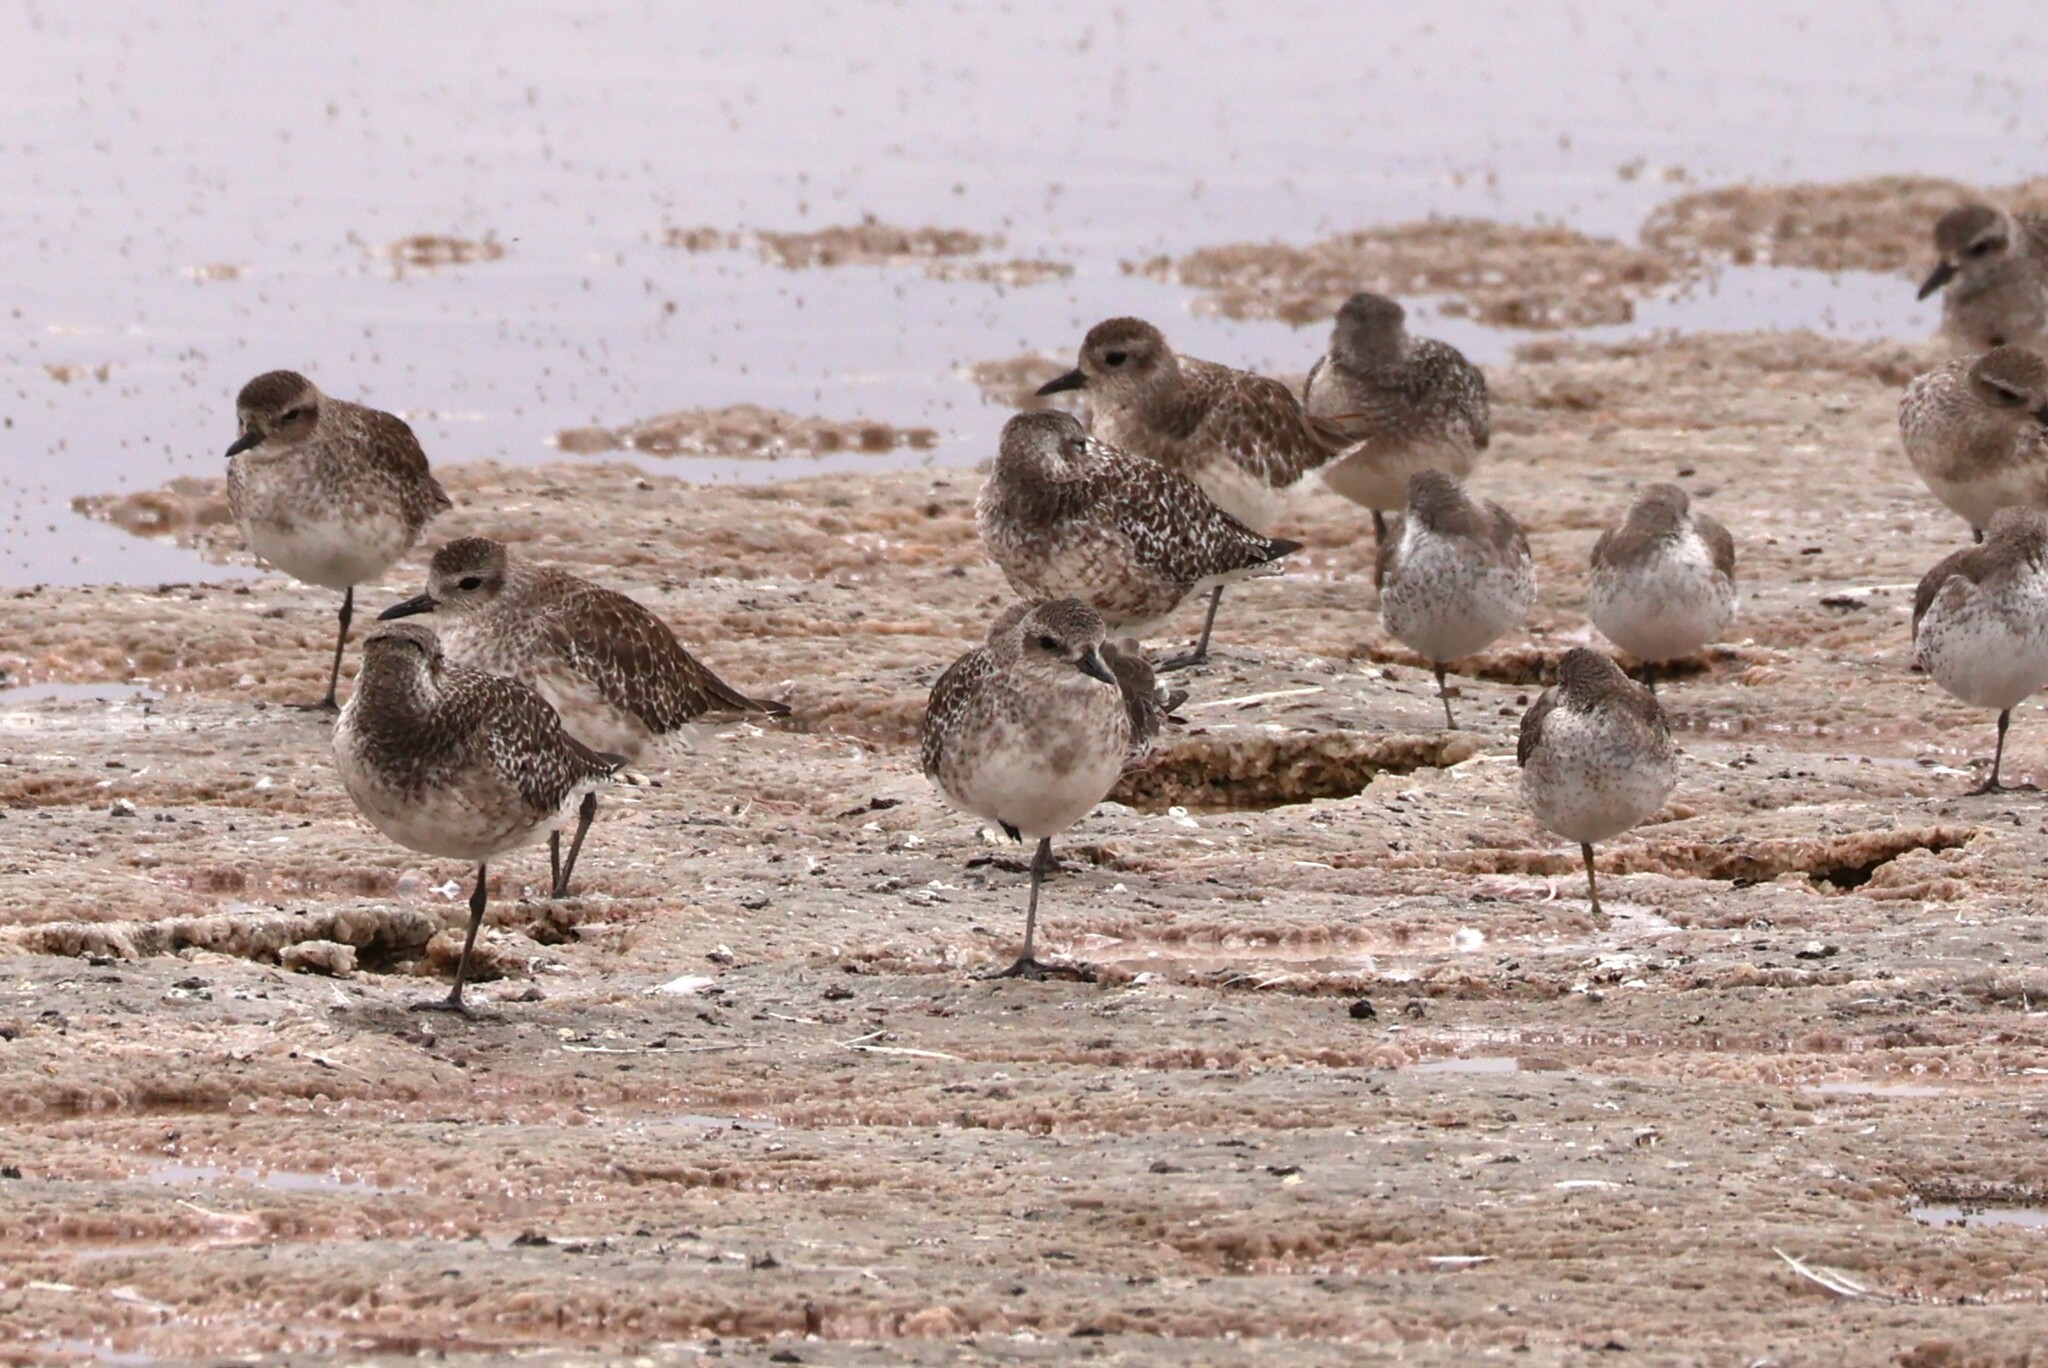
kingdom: Animalia
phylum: Chordata
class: Aves
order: Charadriiformes
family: Charadriidae
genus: Pluvialis
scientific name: Pluvialis squatarola
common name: Grey plover
